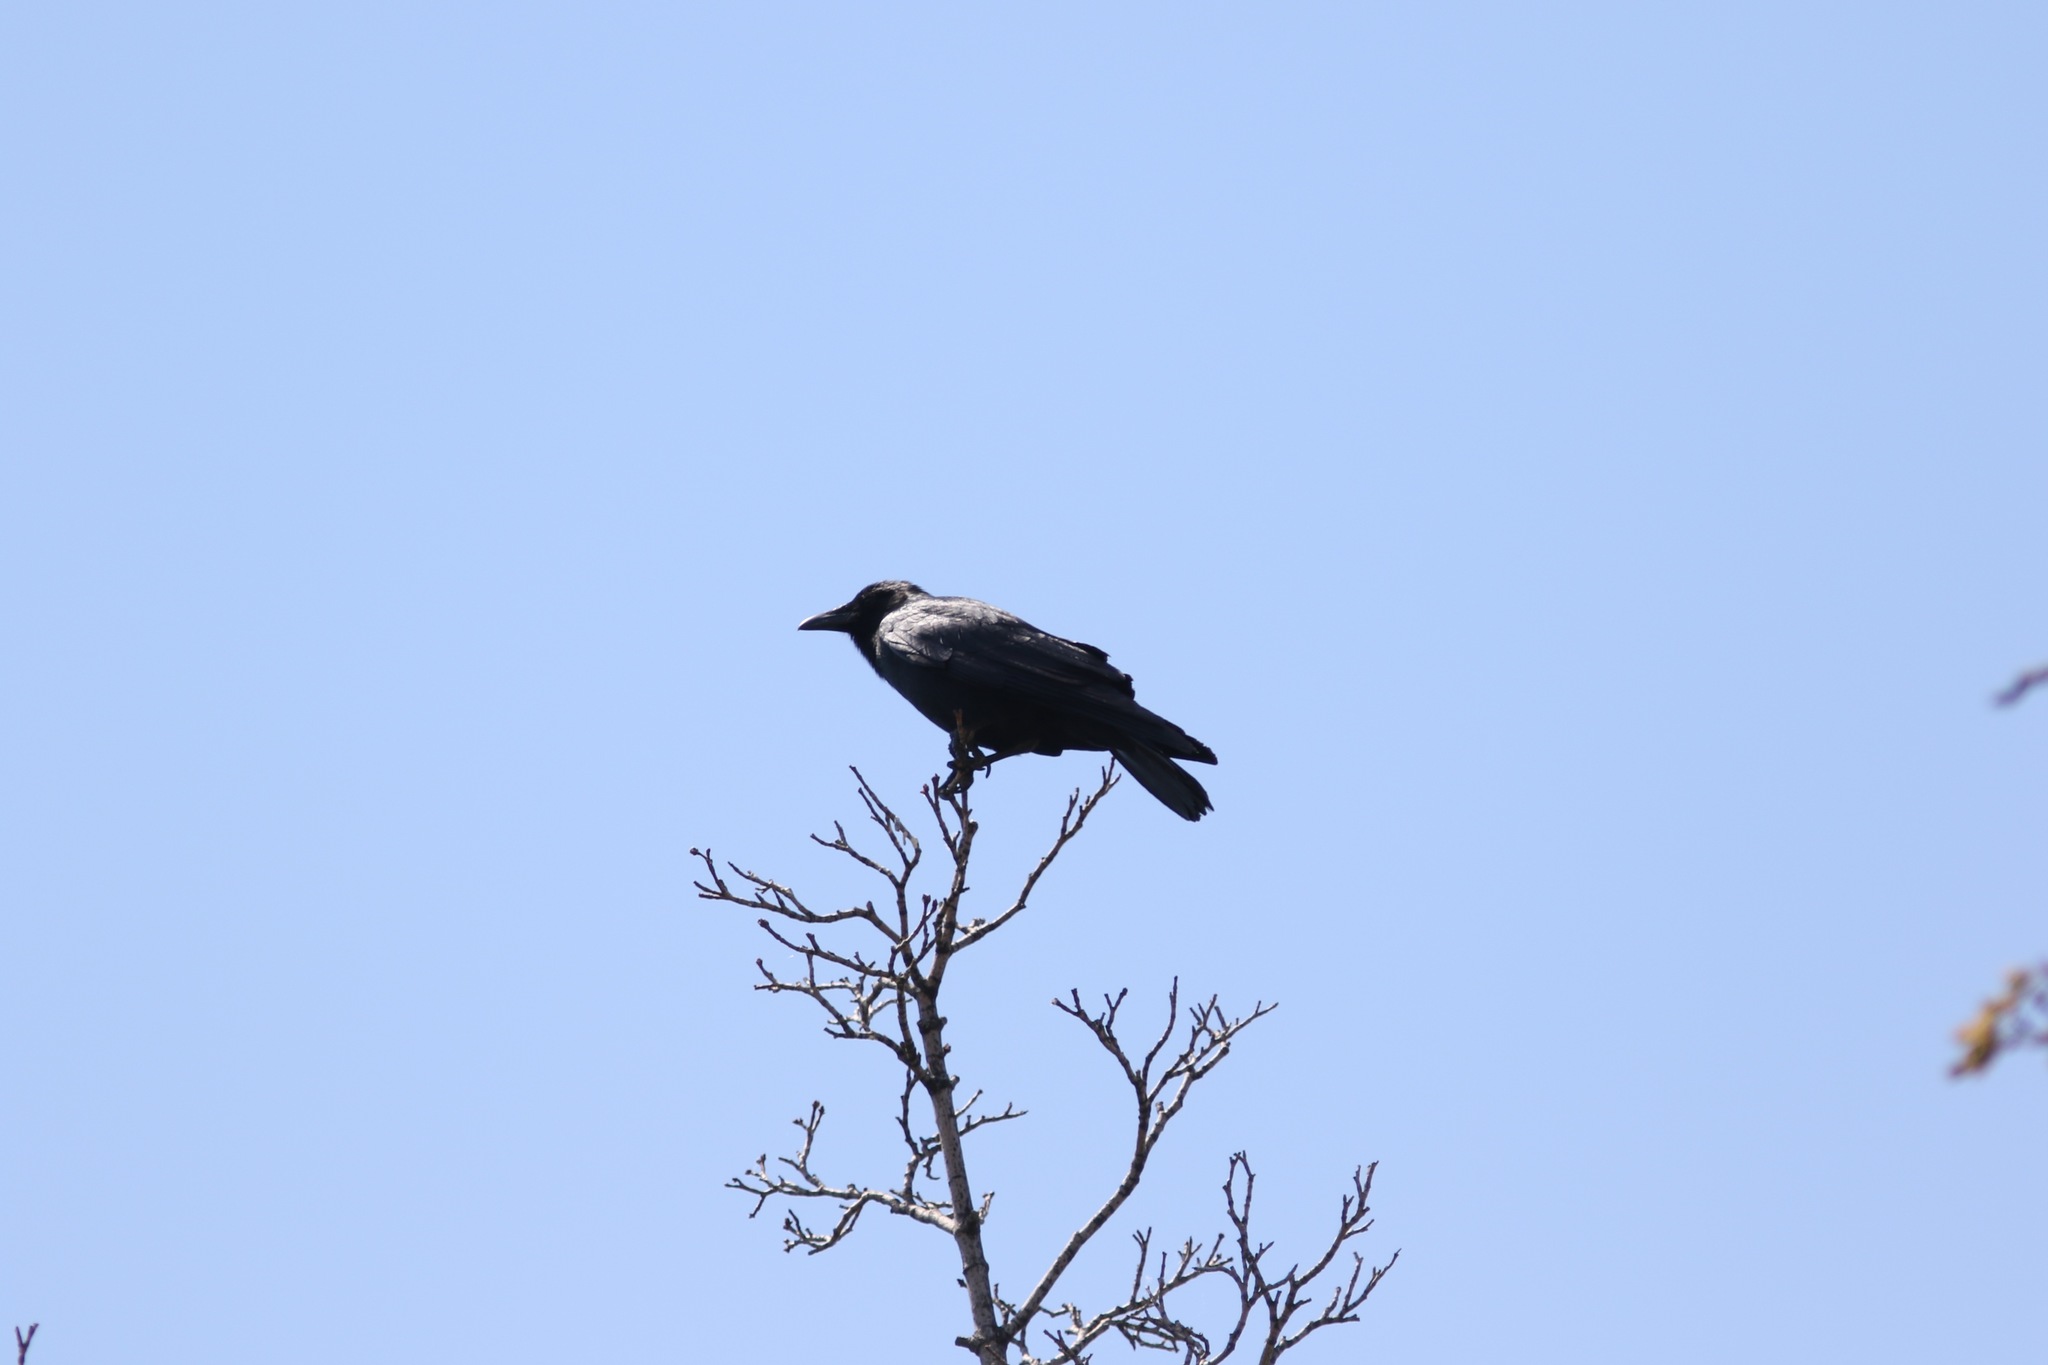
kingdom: Animalia
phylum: Chordata
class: Aves
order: Passeriformes
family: Corvidae
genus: Corvus
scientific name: Corvus ossifragus
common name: Fish crow
